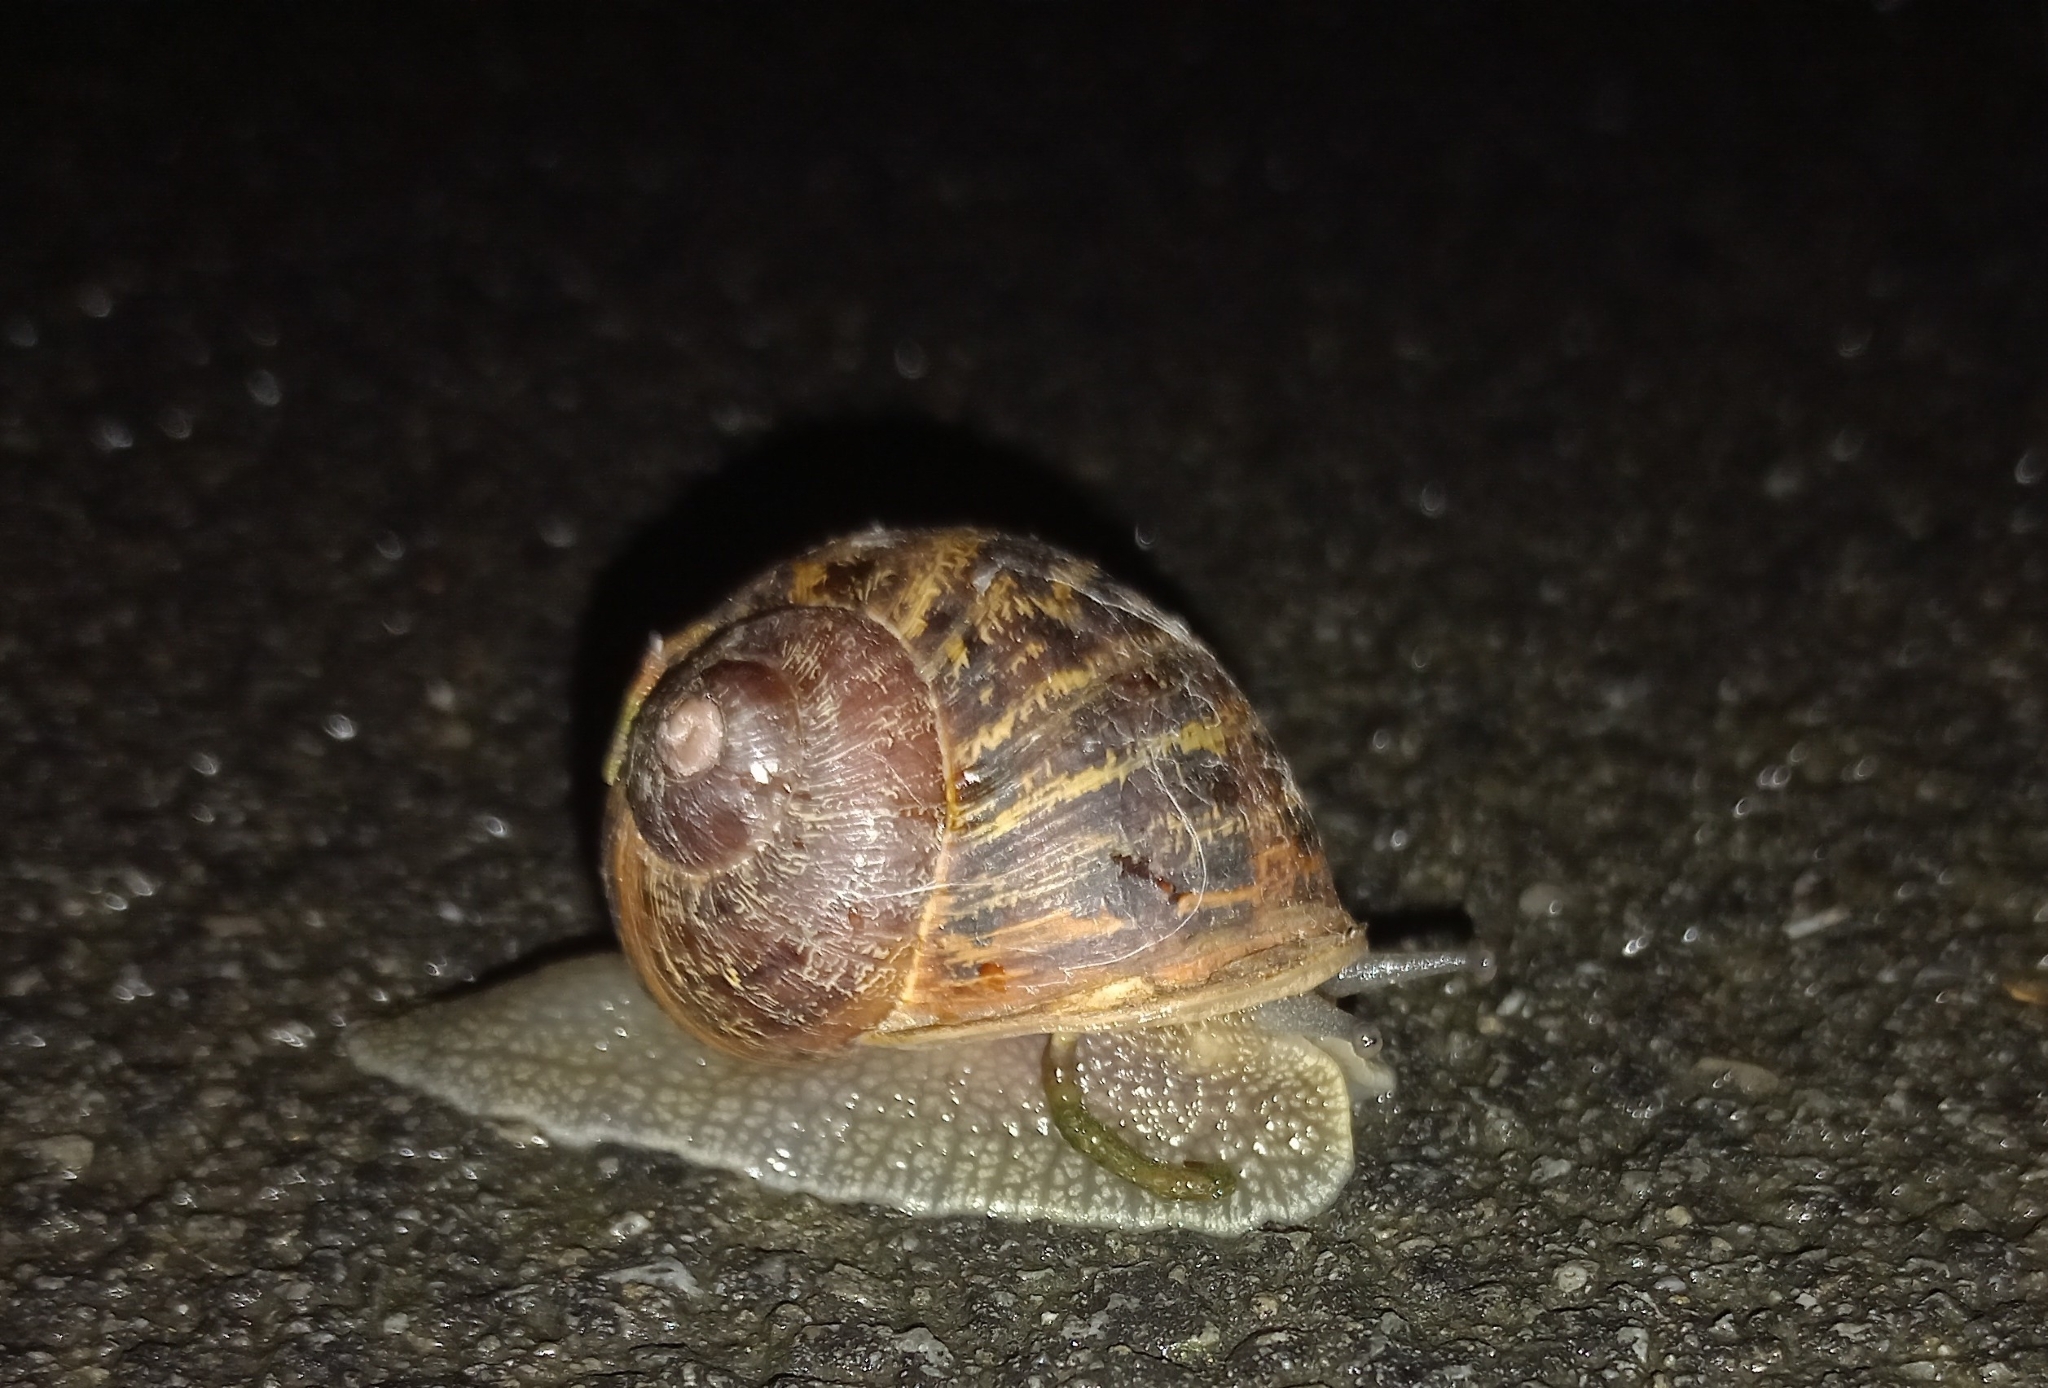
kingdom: Animalia
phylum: Mollusca
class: Gastropoda
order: Stylommatophora
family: Helicidae
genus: Cornu
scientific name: Cornu aspersum
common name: Brown garden snail
